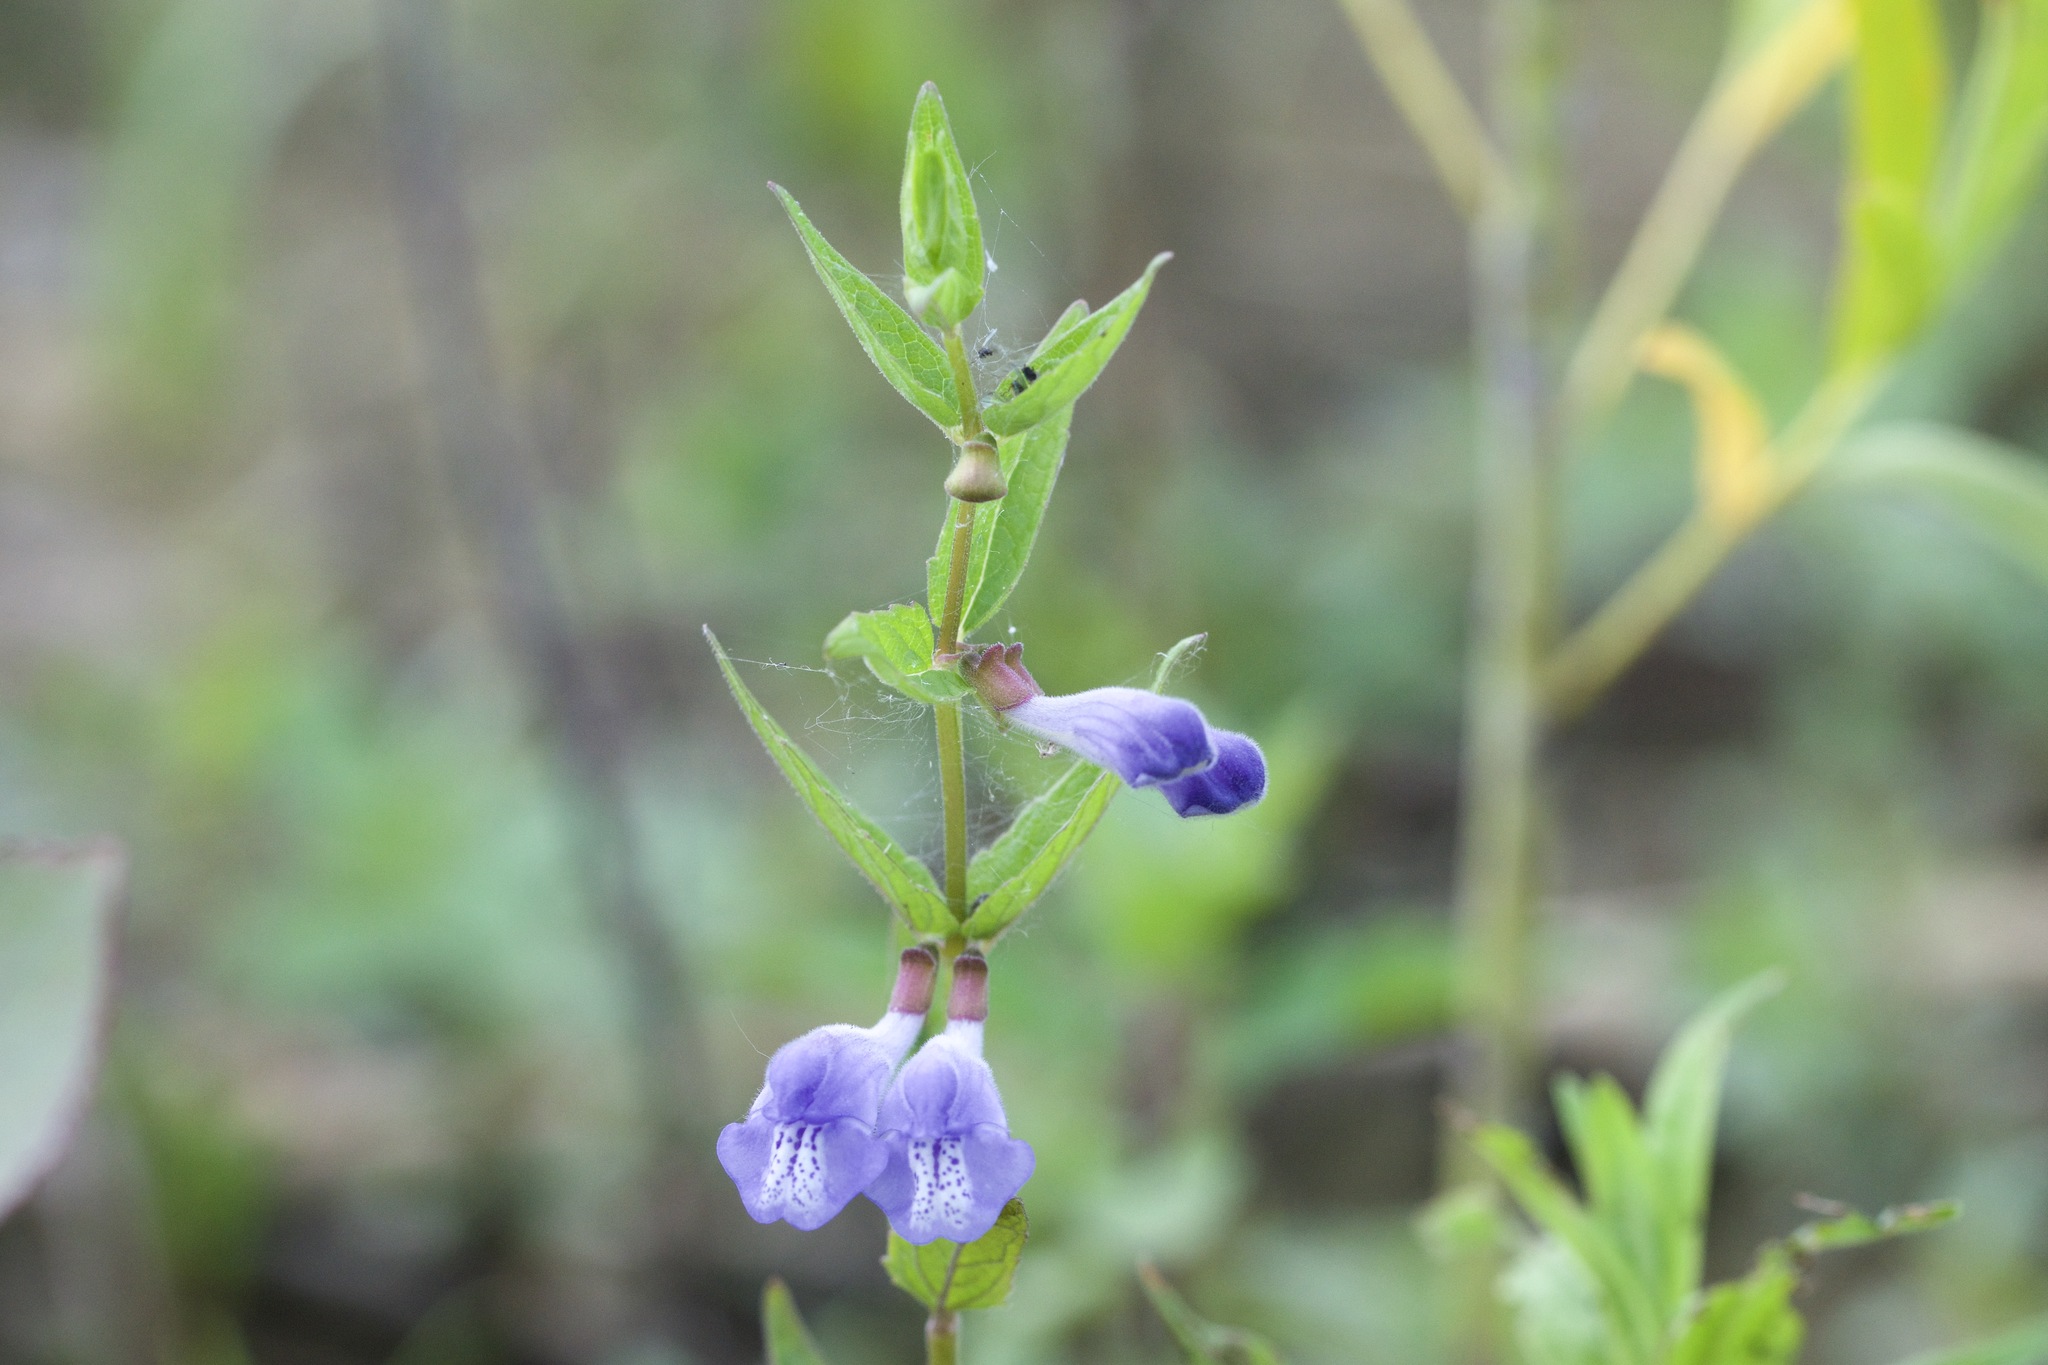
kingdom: Plantae
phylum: Tracheophyta
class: Magnoliopsida
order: Lamiales
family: Lamiaceae
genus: Scutellaria
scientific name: Scutellaria galericulata
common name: Skullcap
